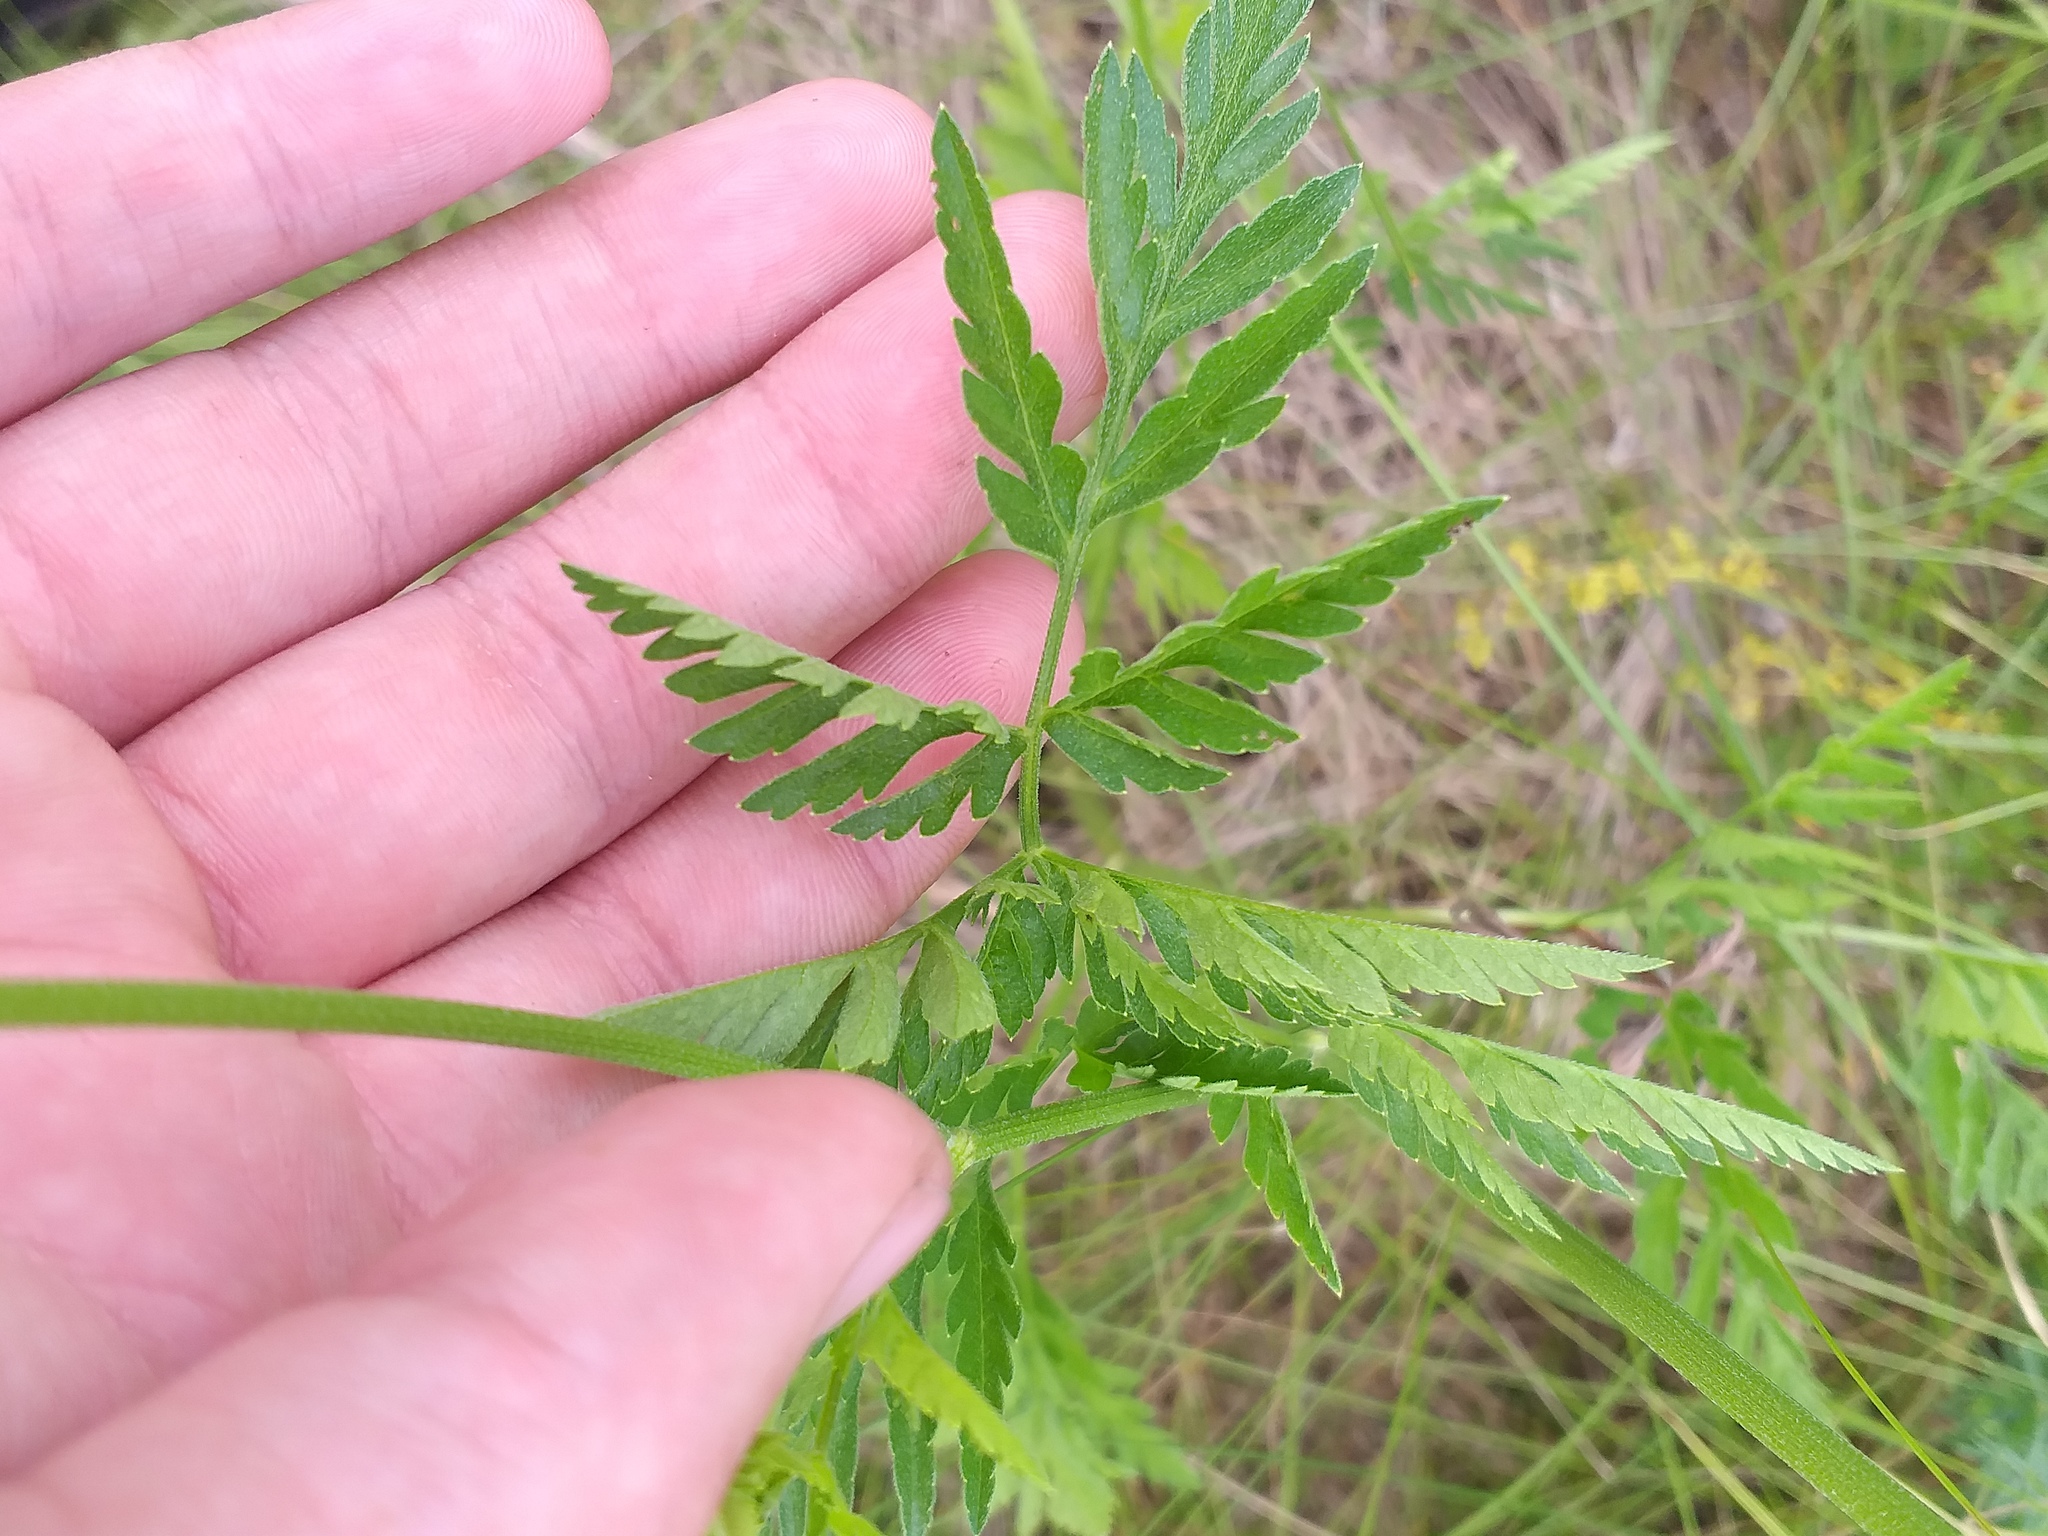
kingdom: Plantae
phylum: Tracheophyta
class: Magnoliopsida
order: Apiales
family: Apiaceae
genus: Torilis
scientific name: Torilis japonica
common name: Upright hedge-parsley
